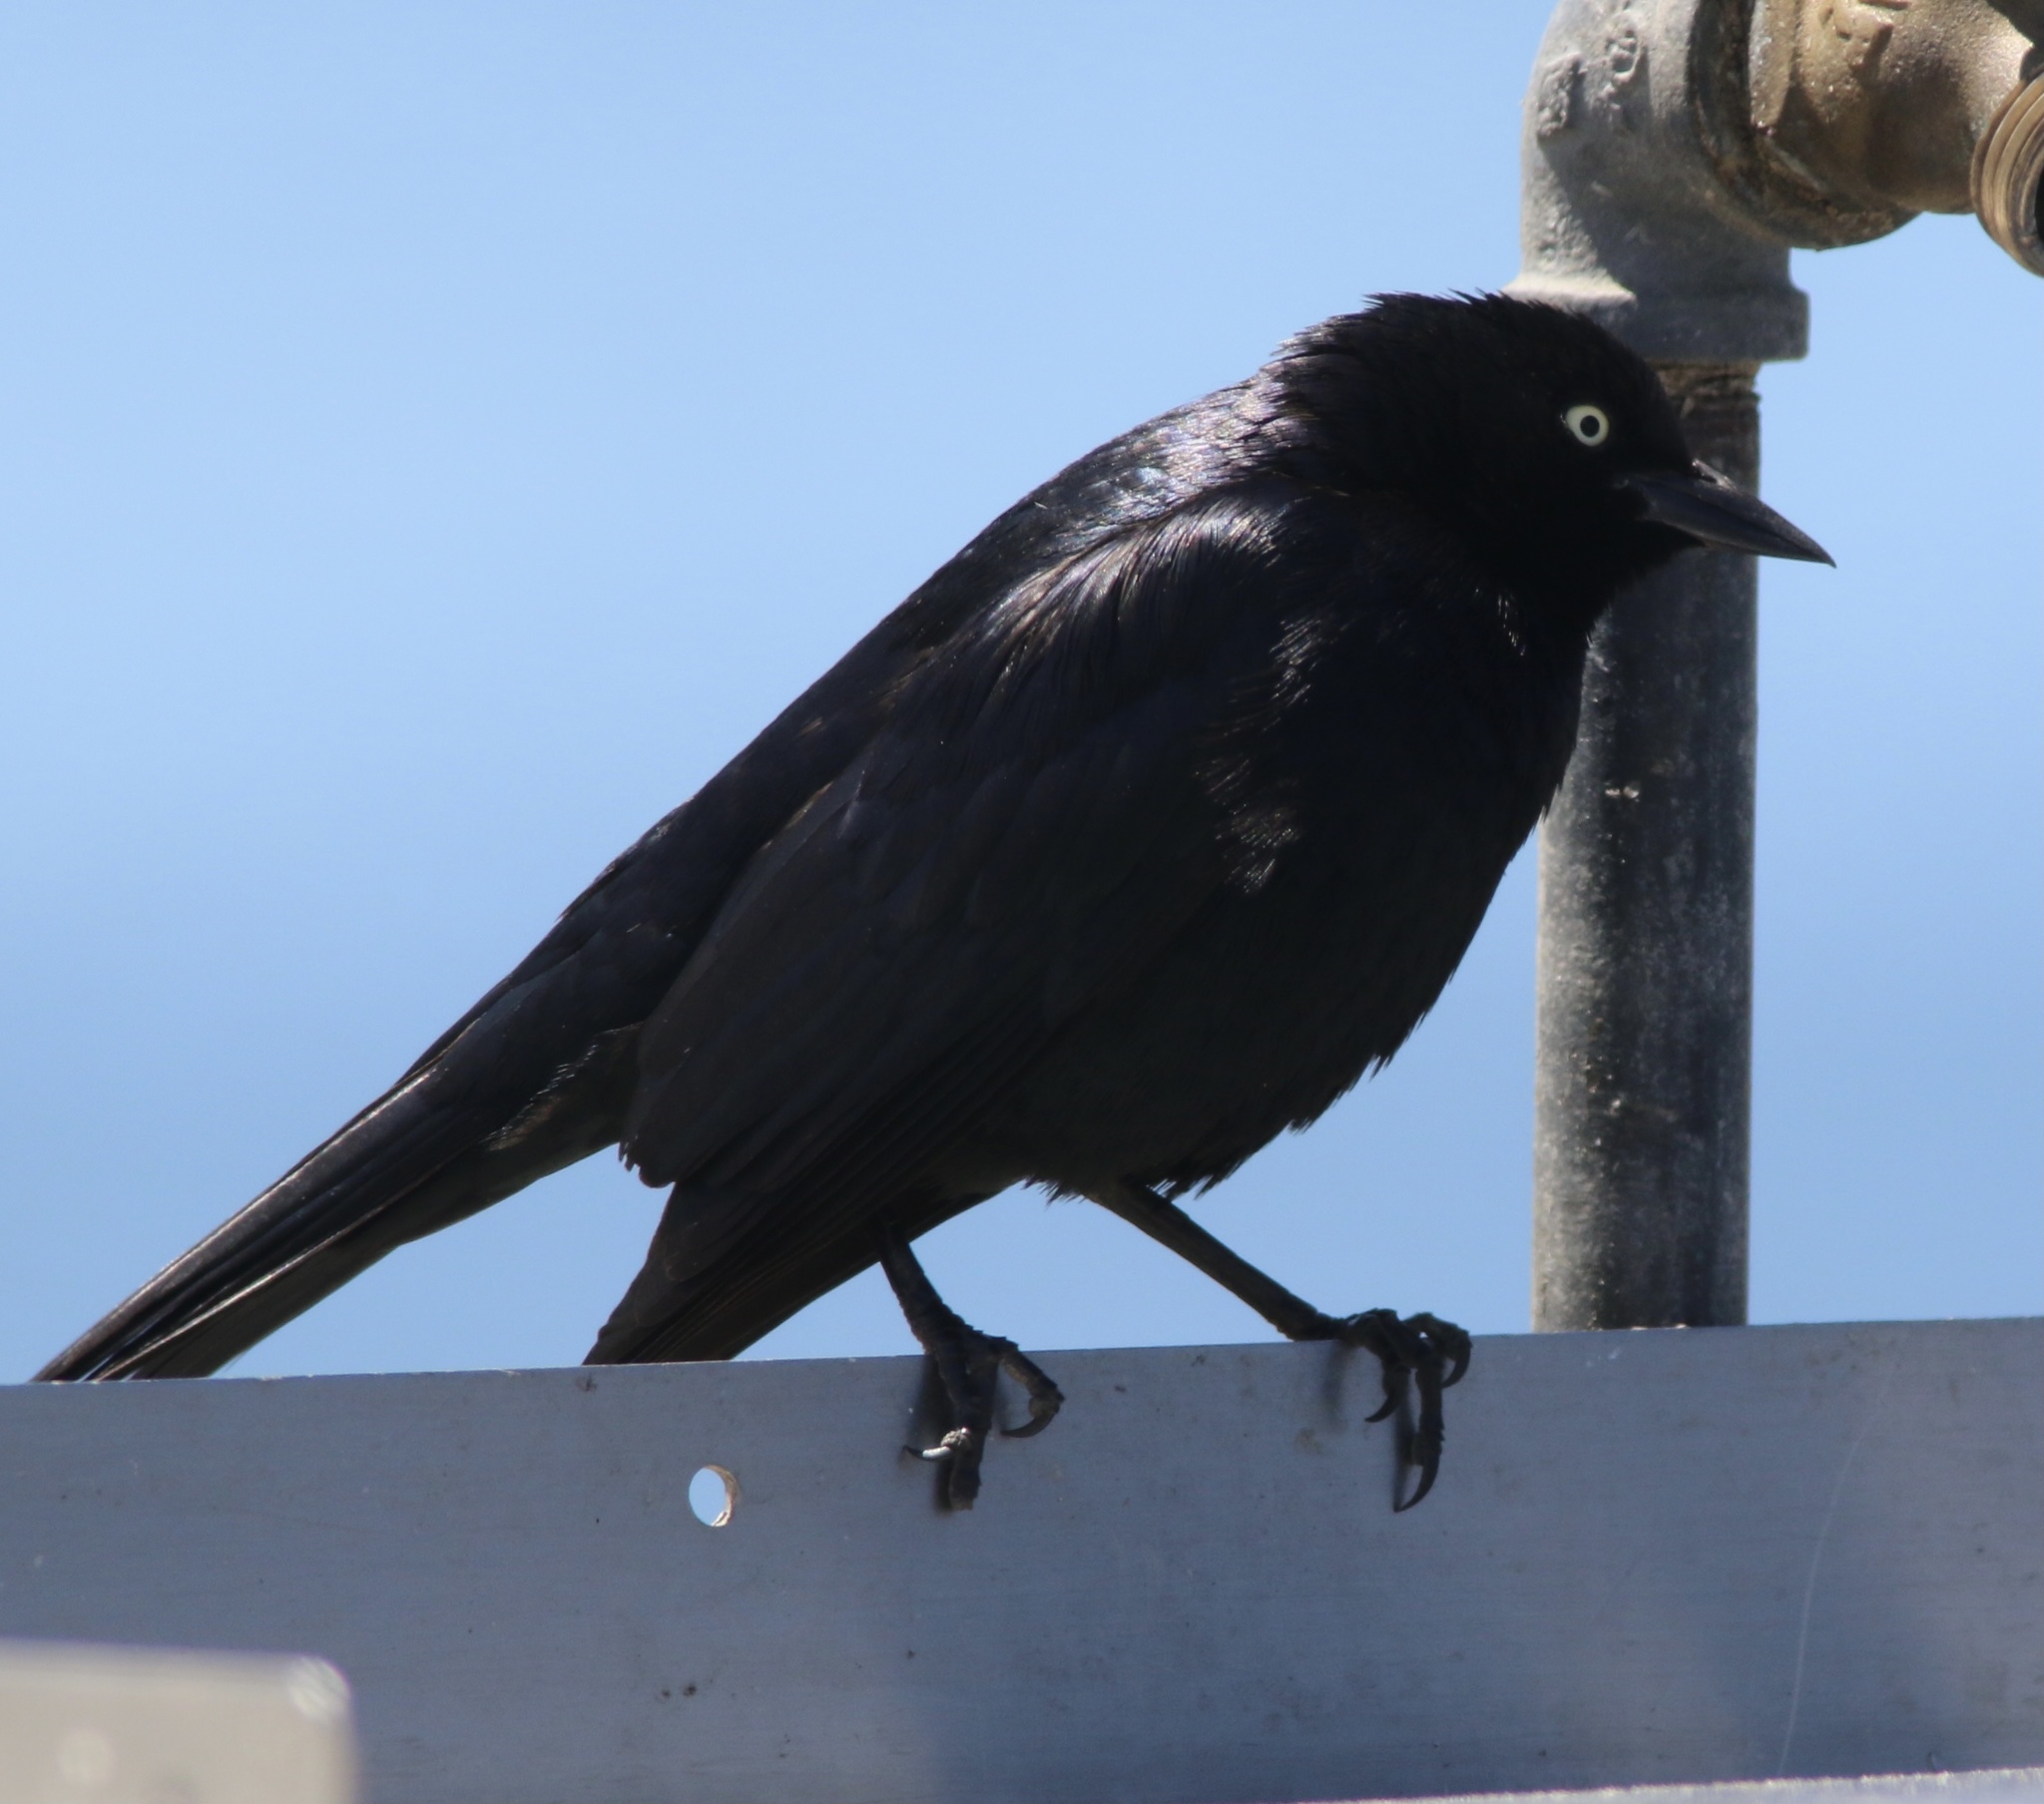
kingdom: Animalia
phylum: Chordata
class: Aves
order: Passeriformes
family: Icteridae
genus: Euphagus
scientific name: Euphagus cyanocephalus
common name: Brewer's blackbird
